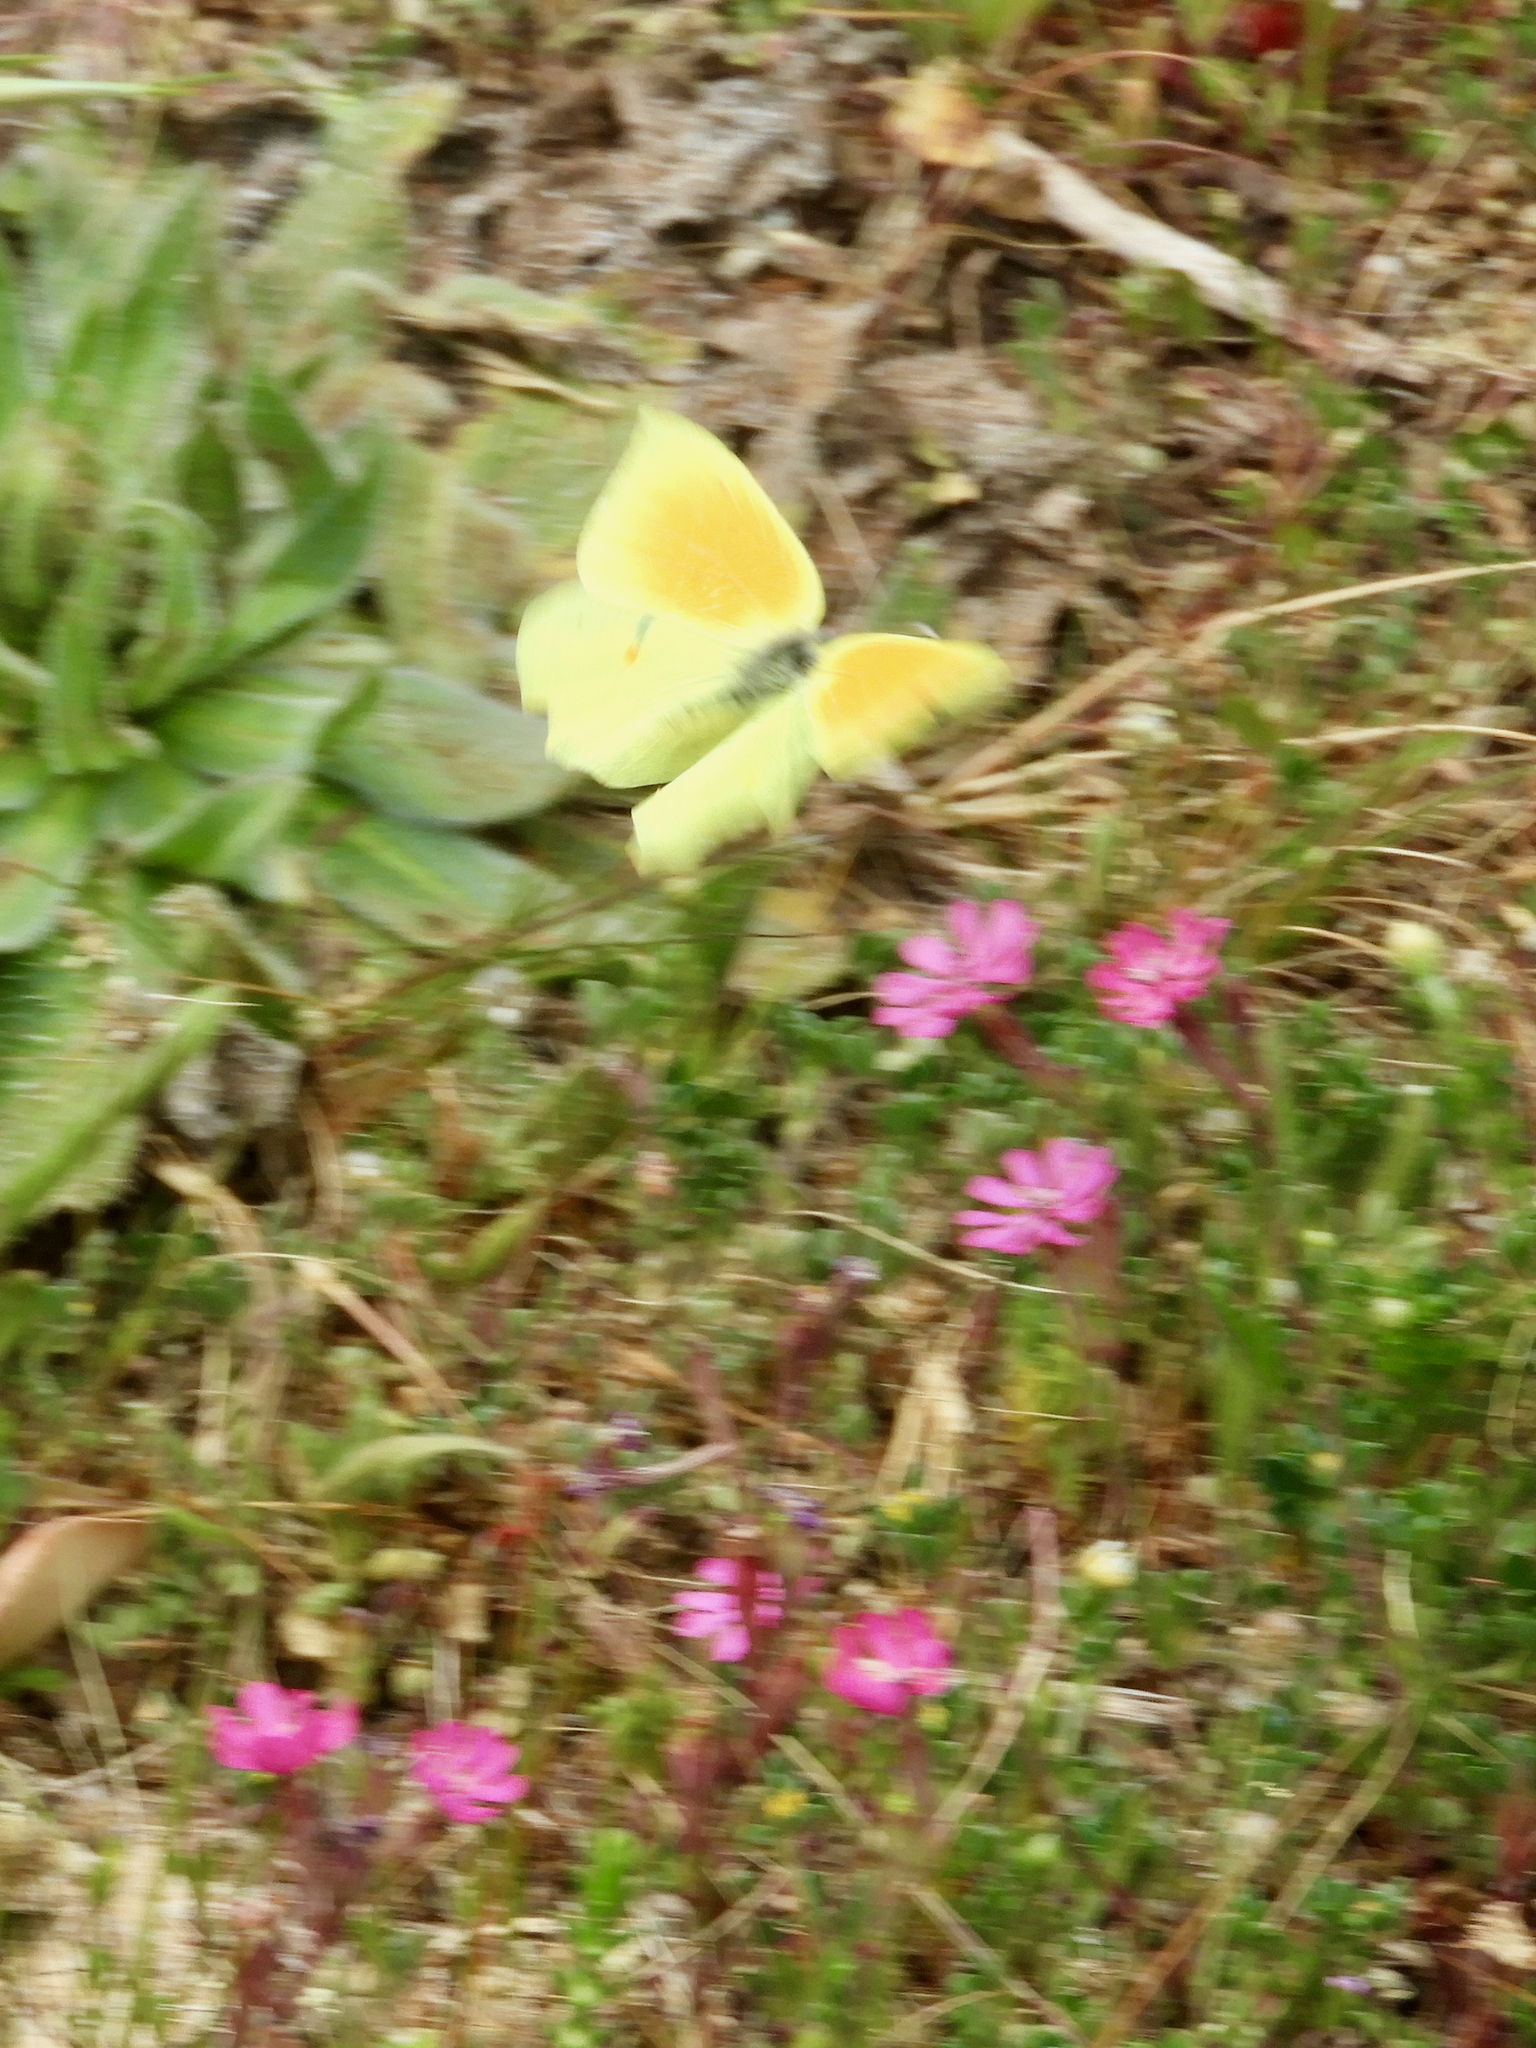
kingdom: Animalia
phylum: Arthropoda
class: Insecta
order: Lepidoptera
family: Pieridae
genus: Gonepteryx
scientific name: Gonepteryx cleopatra
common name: Cleopatra
